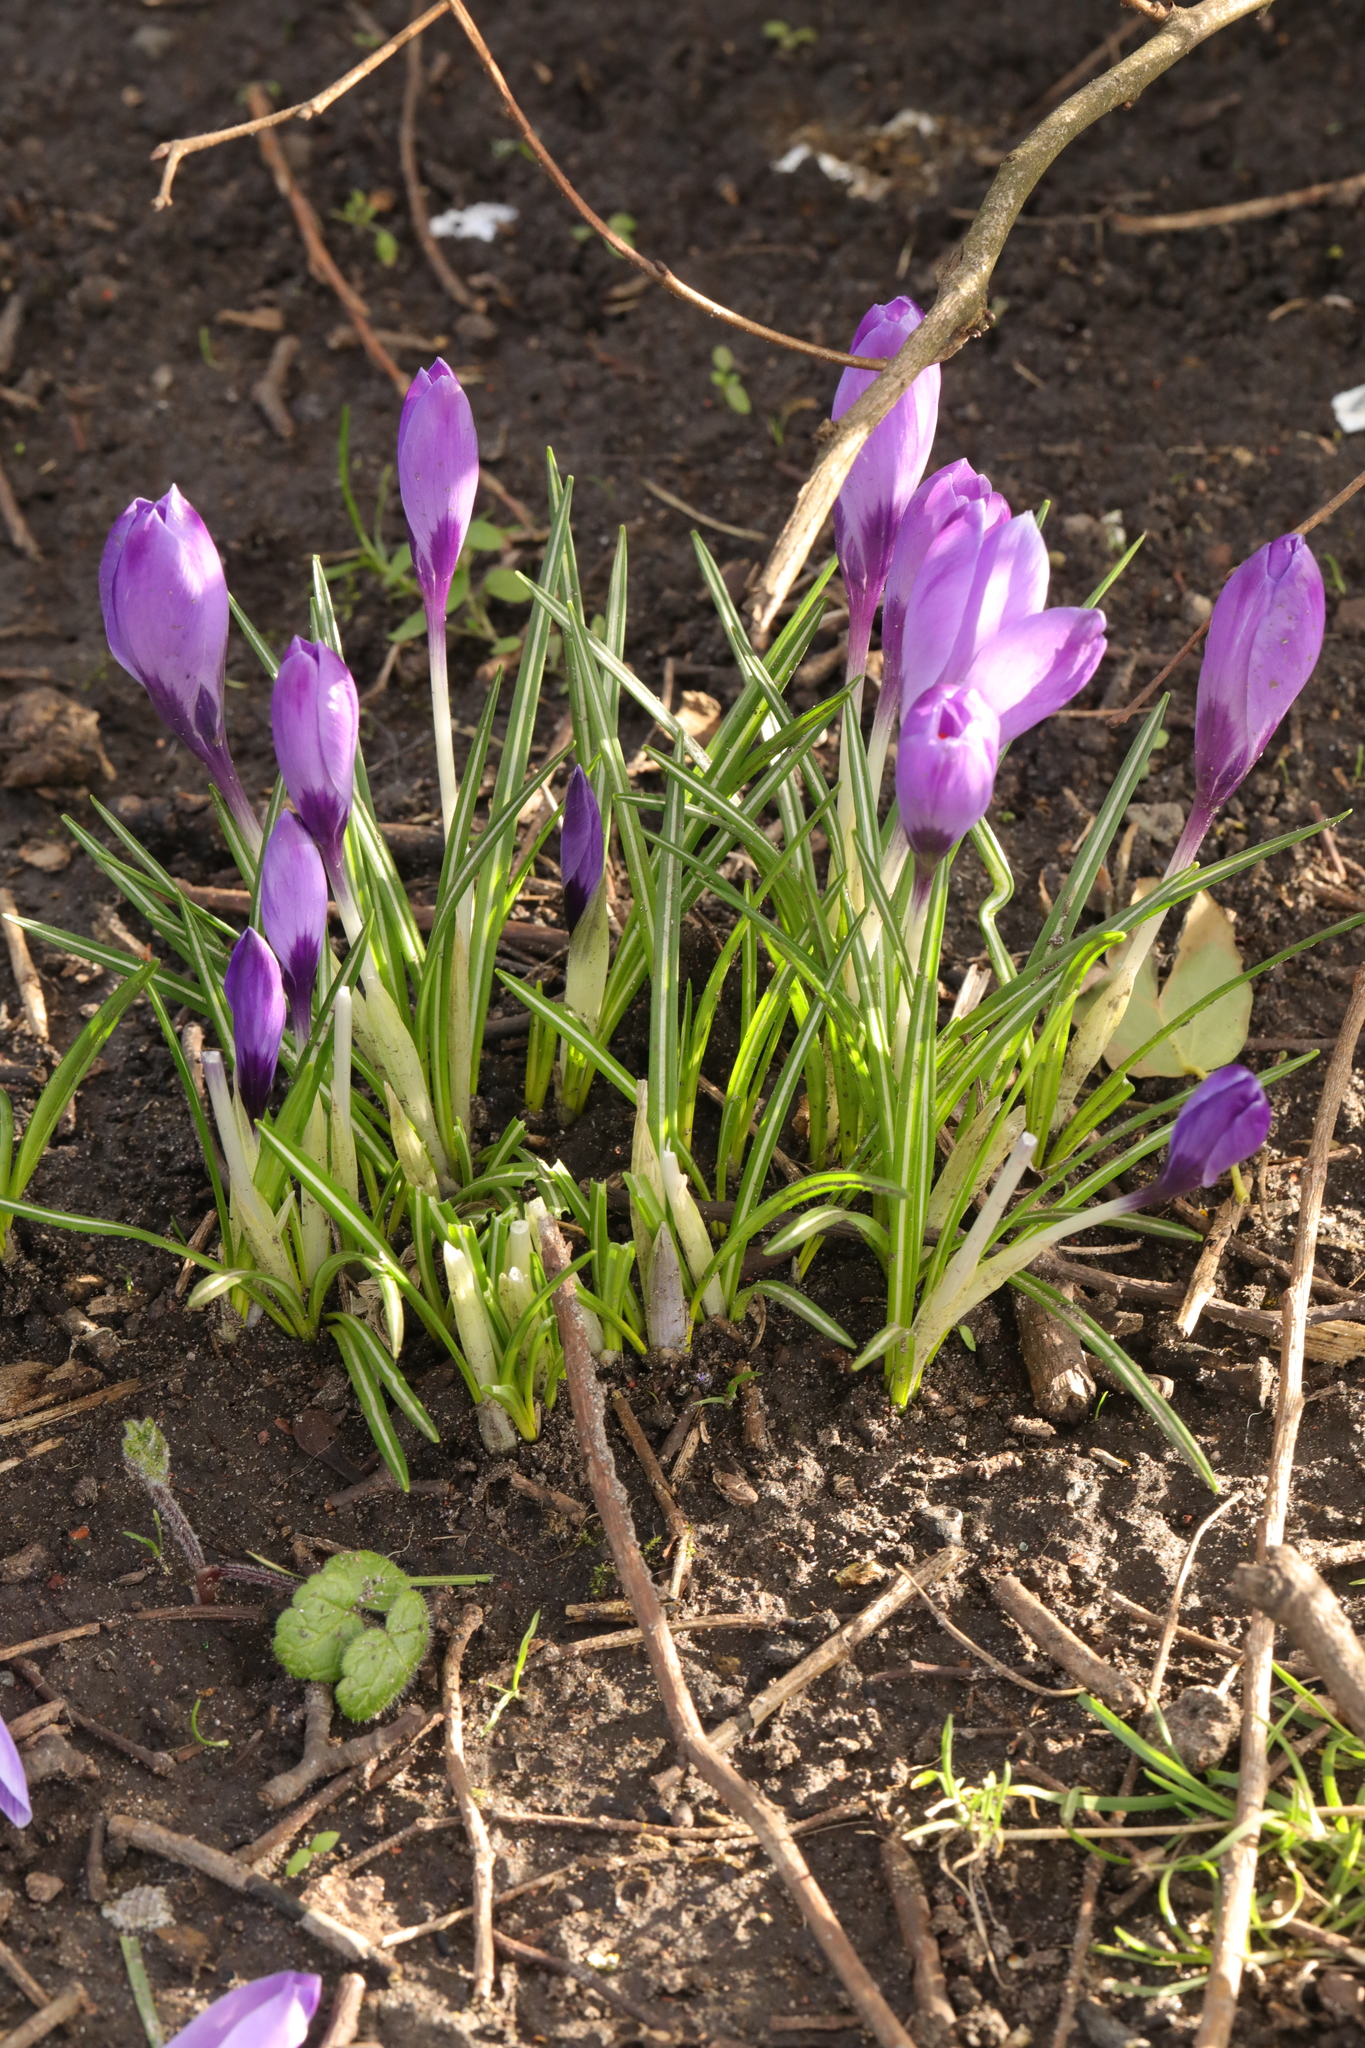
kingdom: Plantae
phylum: Tracheophyta
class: Liliopsida
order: Asparagales
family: Iridaceae
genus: Crocus
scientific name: Crocus neapolitanus
